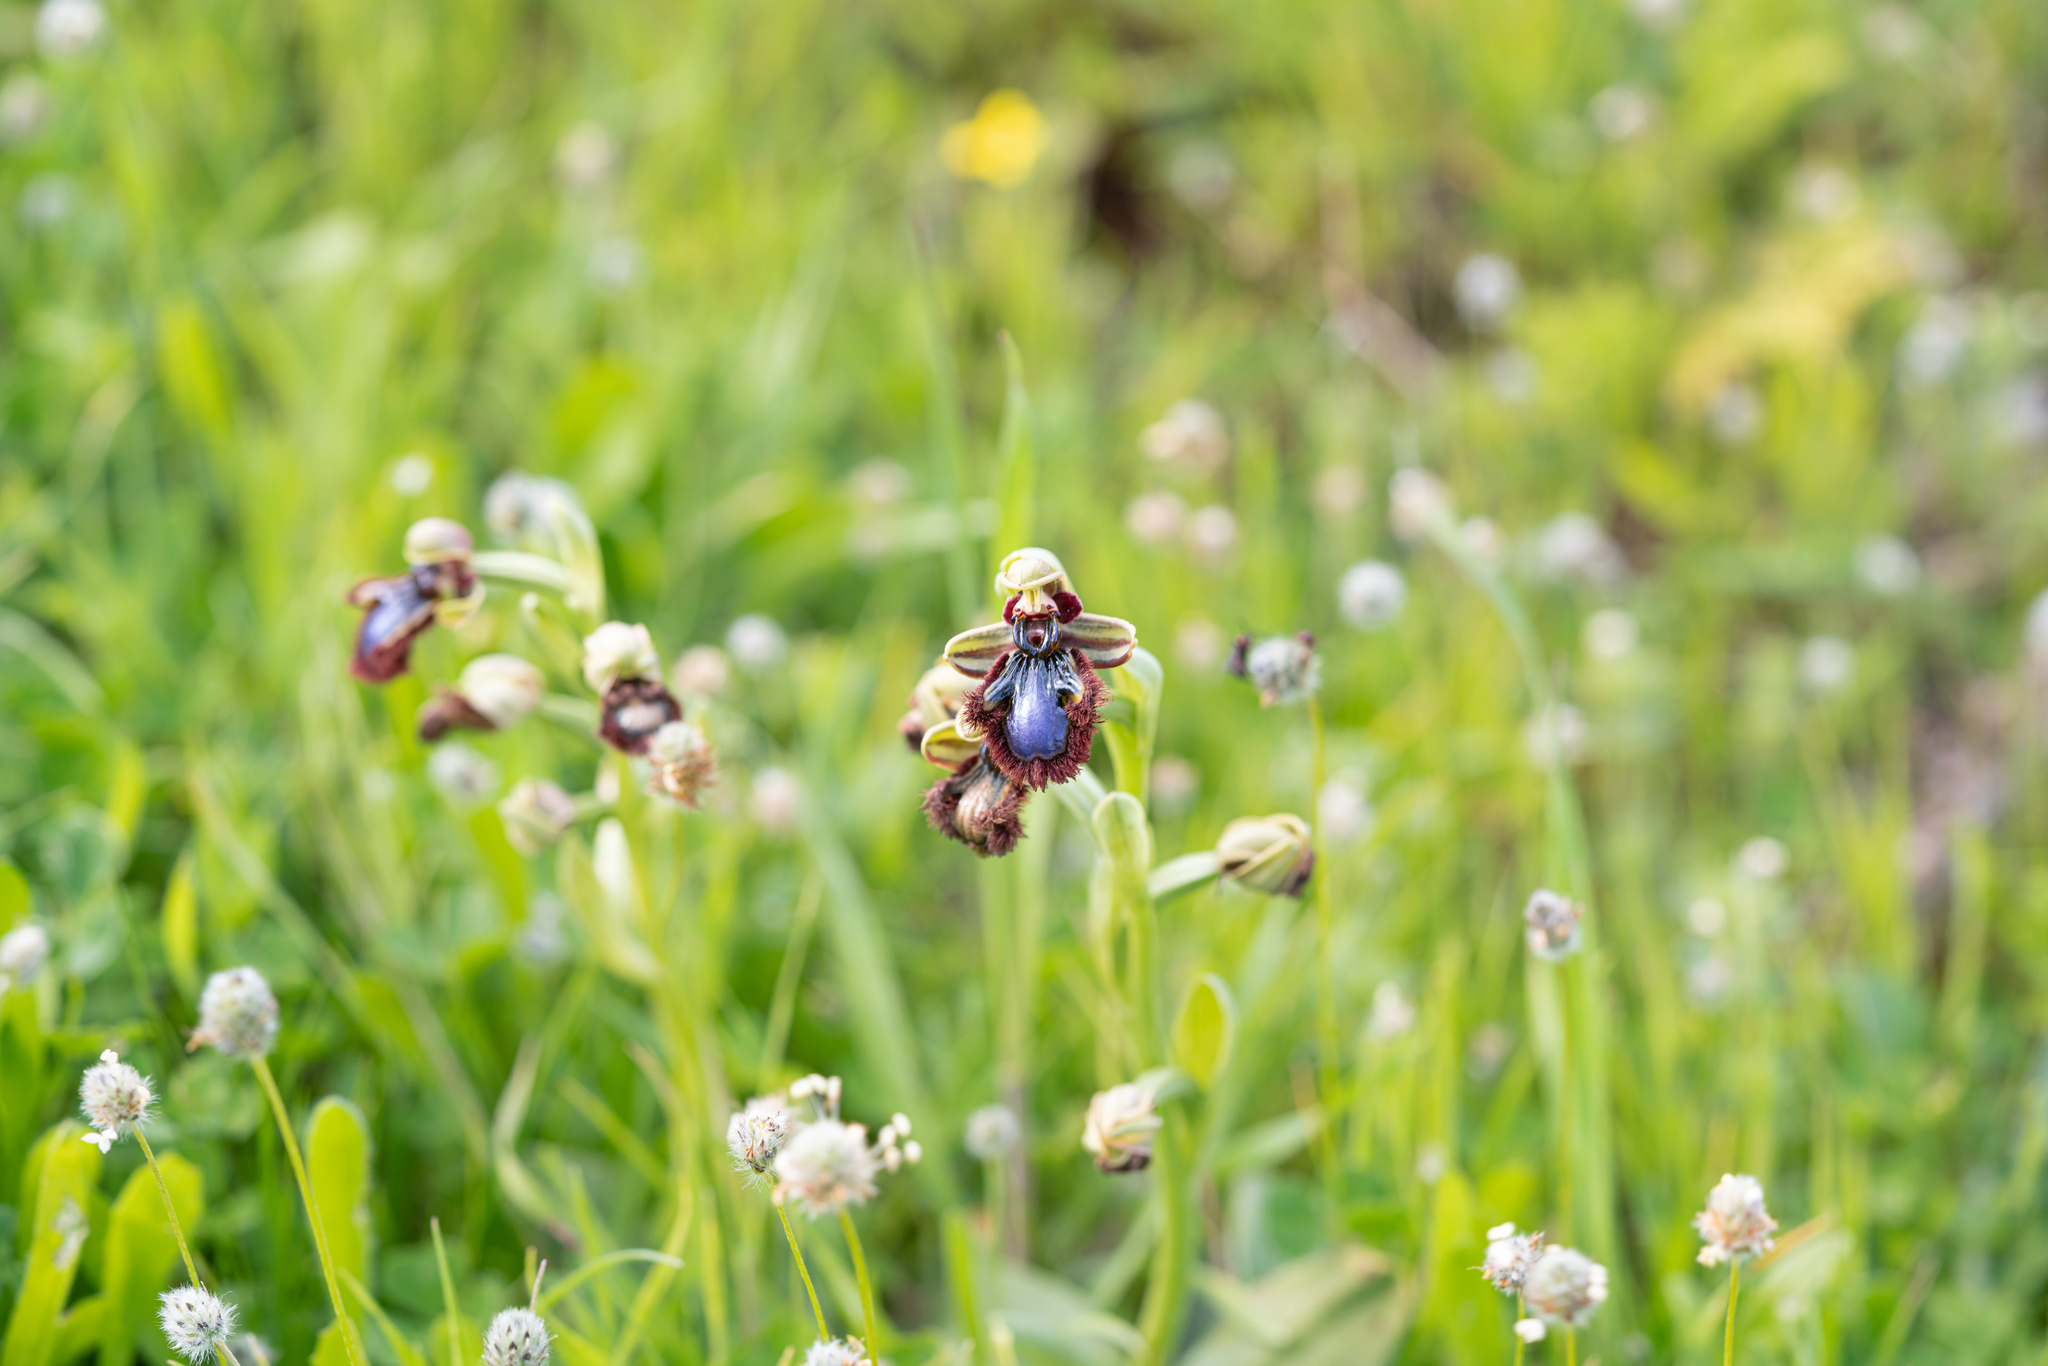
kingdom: Plantae
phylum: Tracheophyta
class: Liliopsida
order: Asparagales
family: Orchidaceae
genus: Ophrys
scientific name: Ophrys speculum
